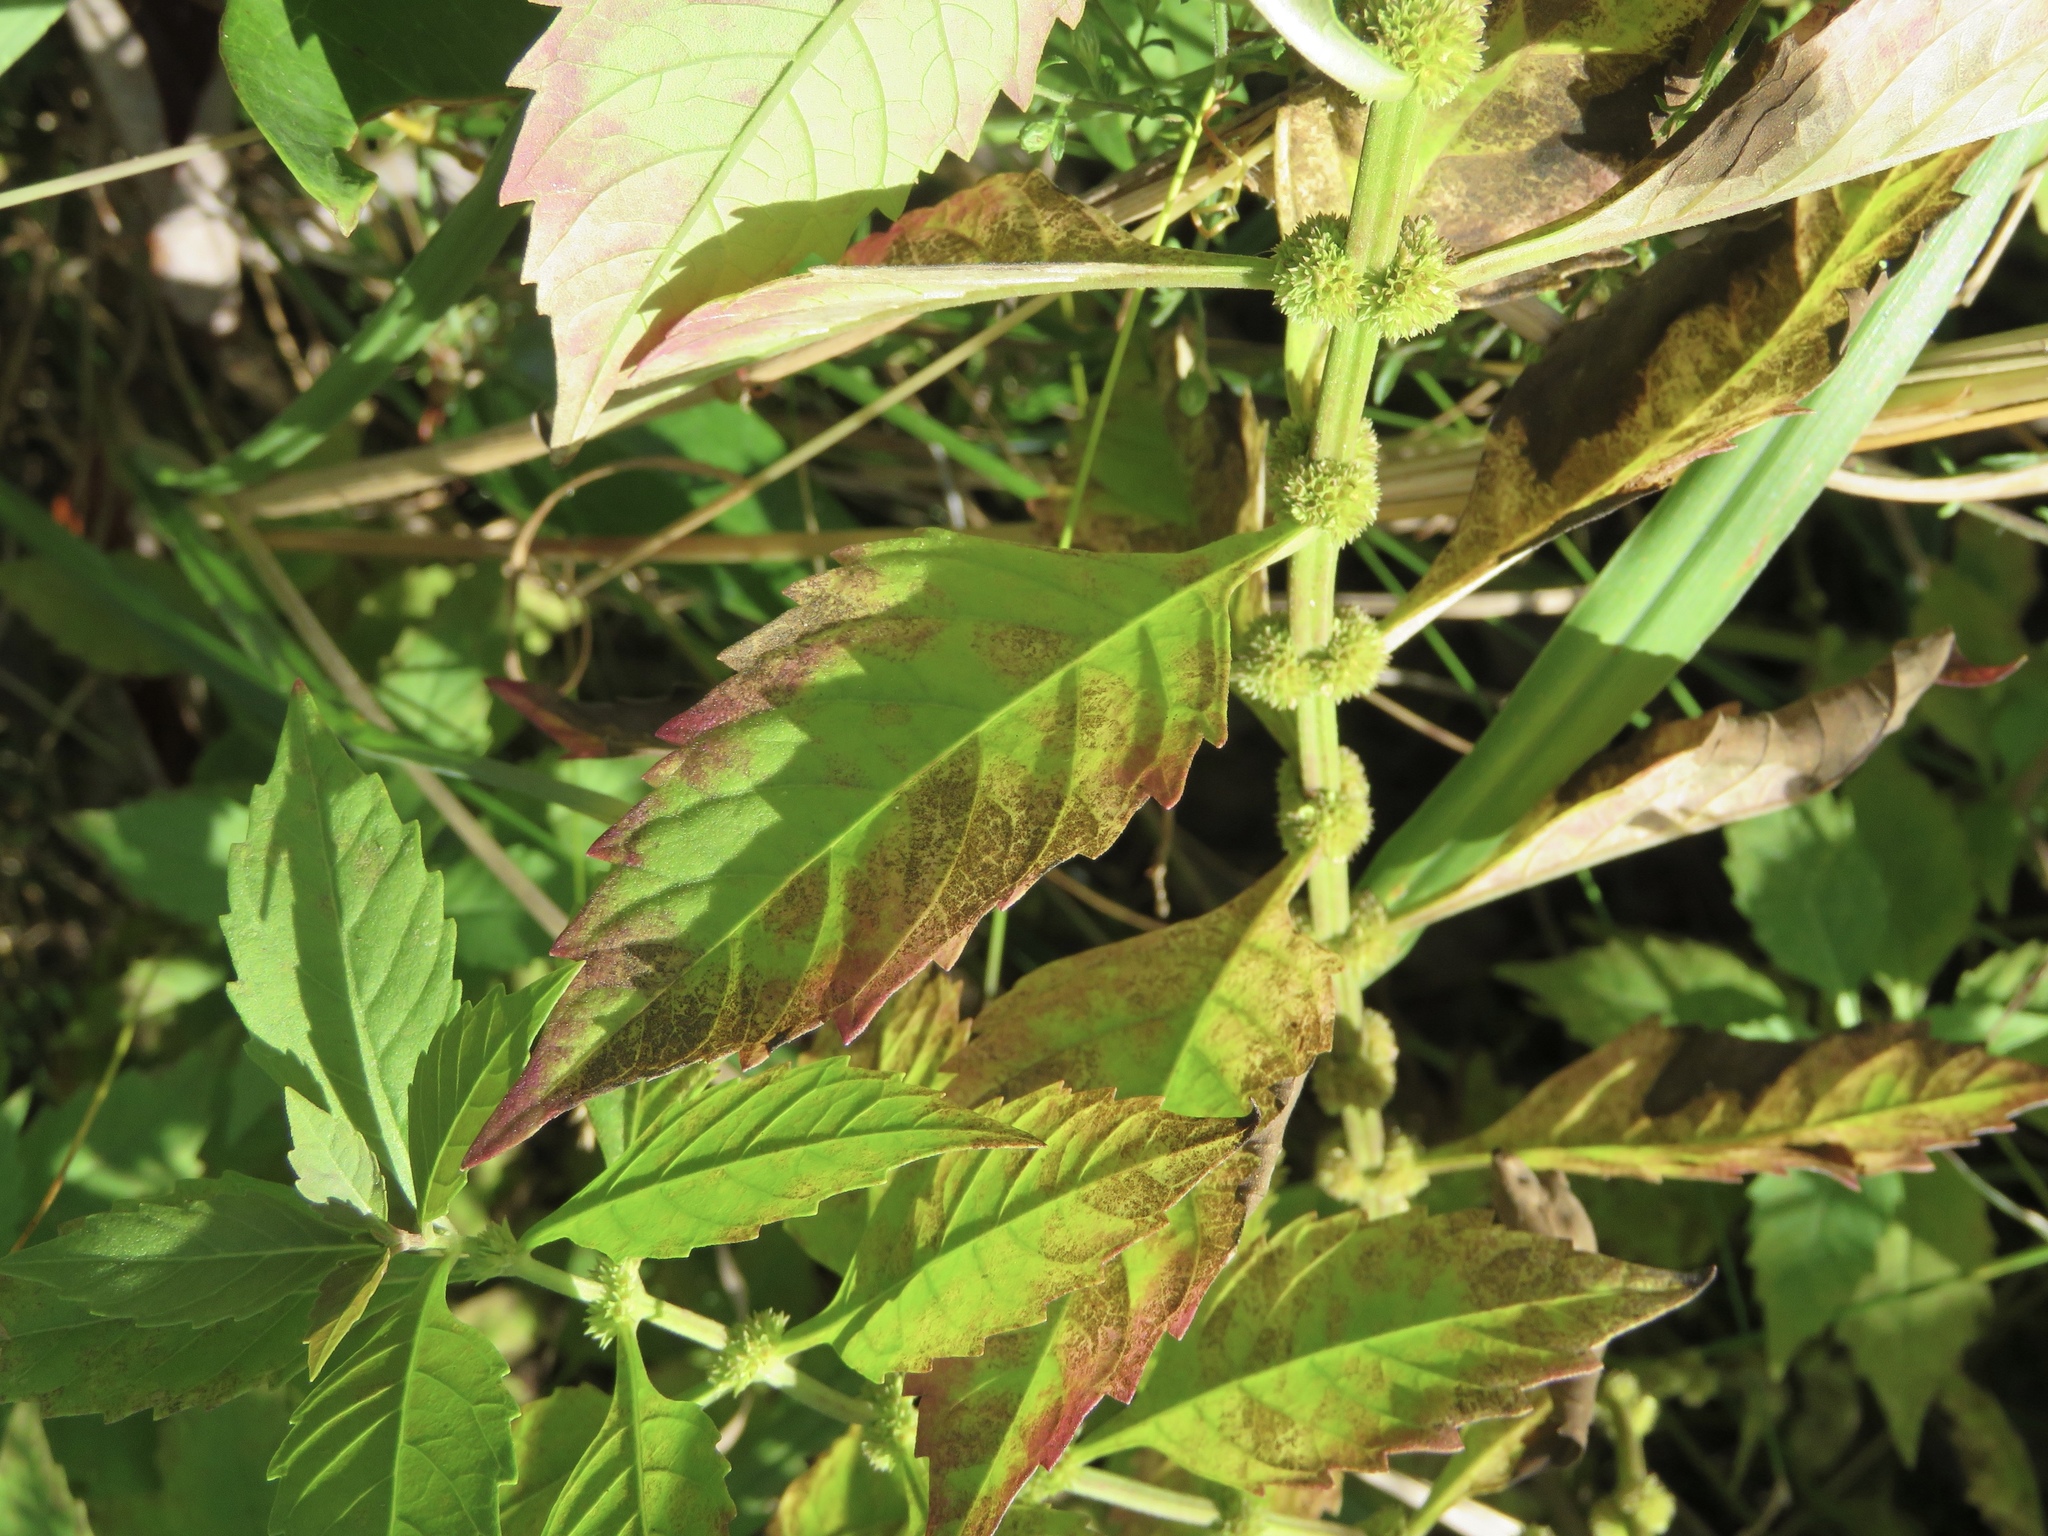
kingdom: Plantae
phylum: Tracheophyta
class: Magnoliopsida
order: Lamiales
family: Lamiaceae
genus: Lycopus
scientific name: Lycopus virginicus
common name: Bugleweed
